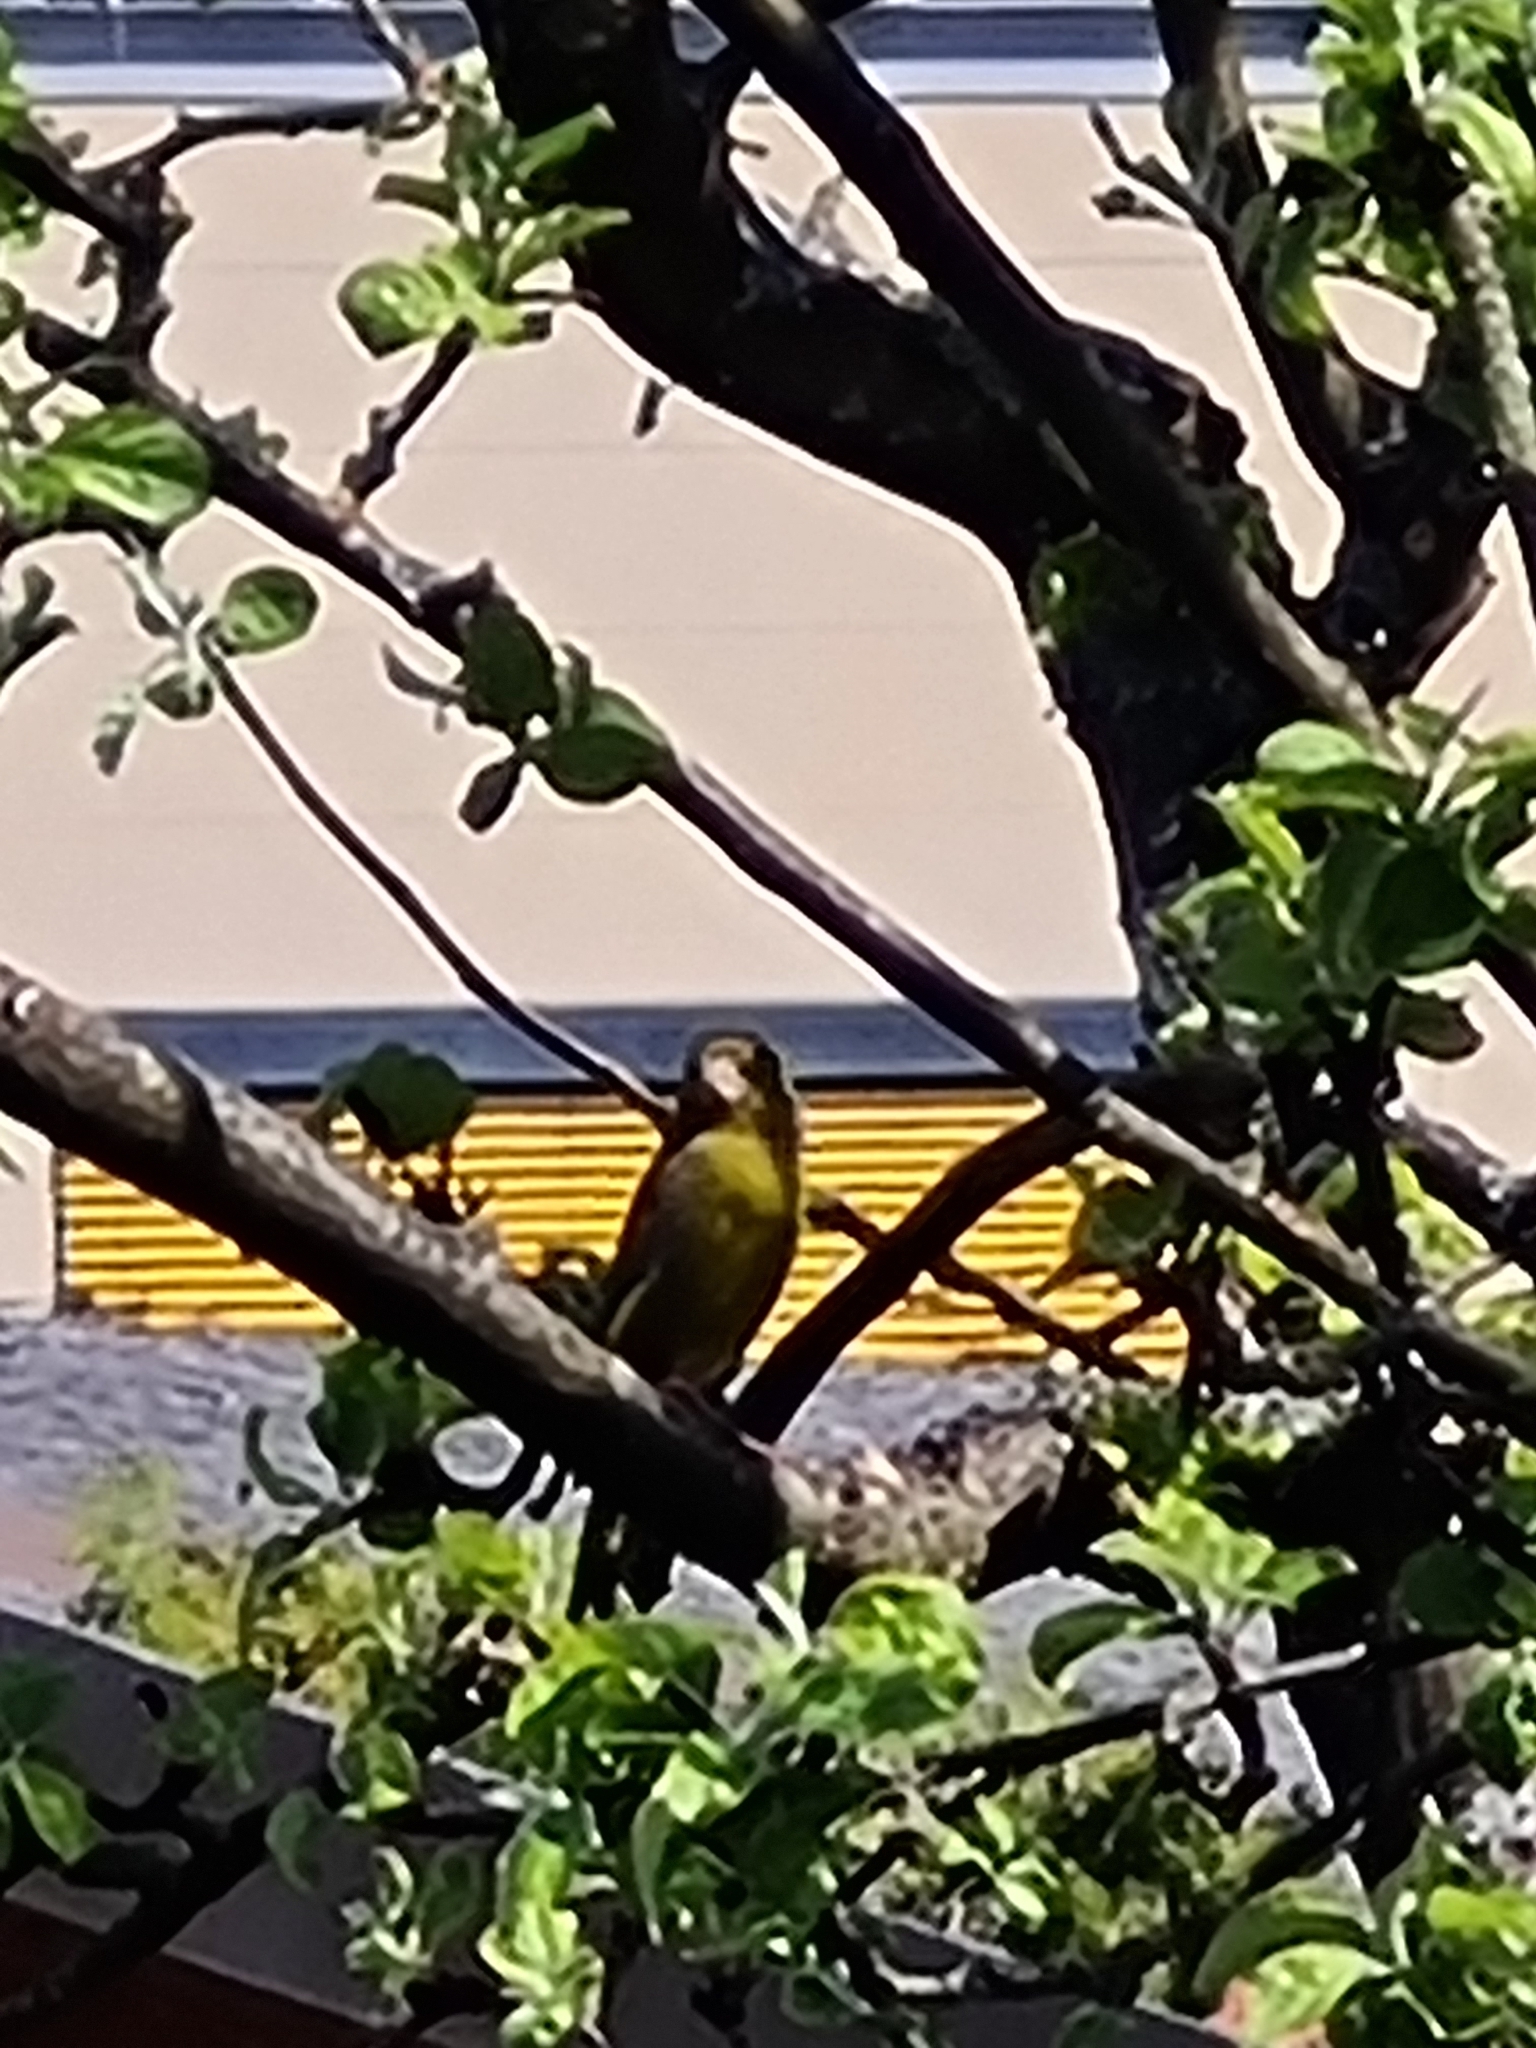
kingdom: Plantae
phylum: Tracheophyta
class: Liliopsida
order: Poales
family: Poaceae
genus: Chloris
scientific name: Chloris chloris
